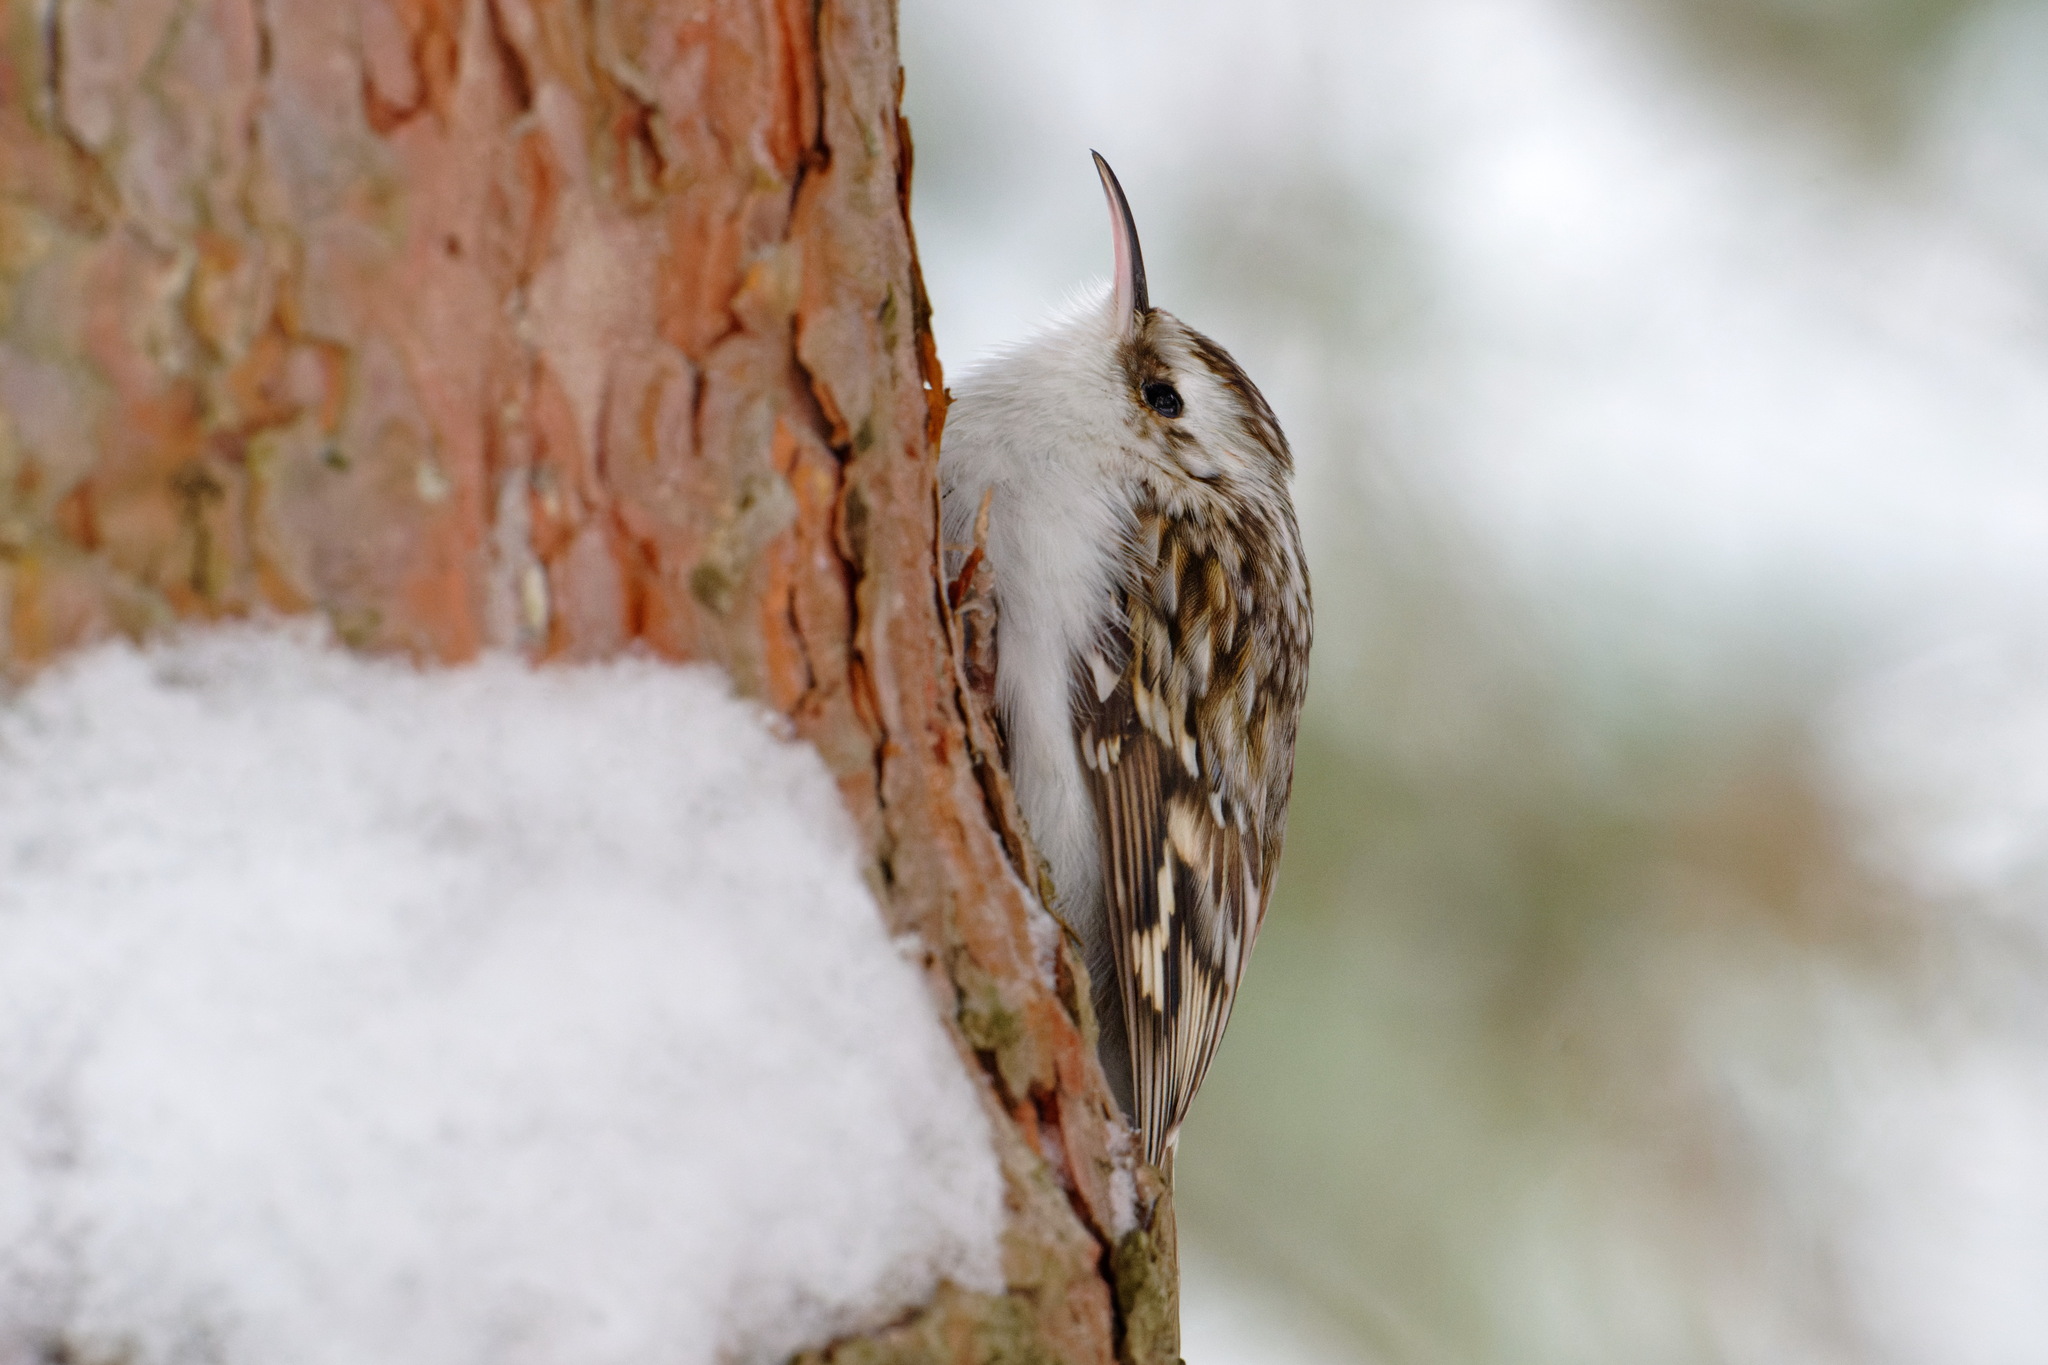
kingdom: Animalia
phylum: Chordata
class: Aves
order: Passeriformes
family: Certhiidae
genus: Certhia
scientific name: Certhia familiaris
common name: Eurasian treecreeper
